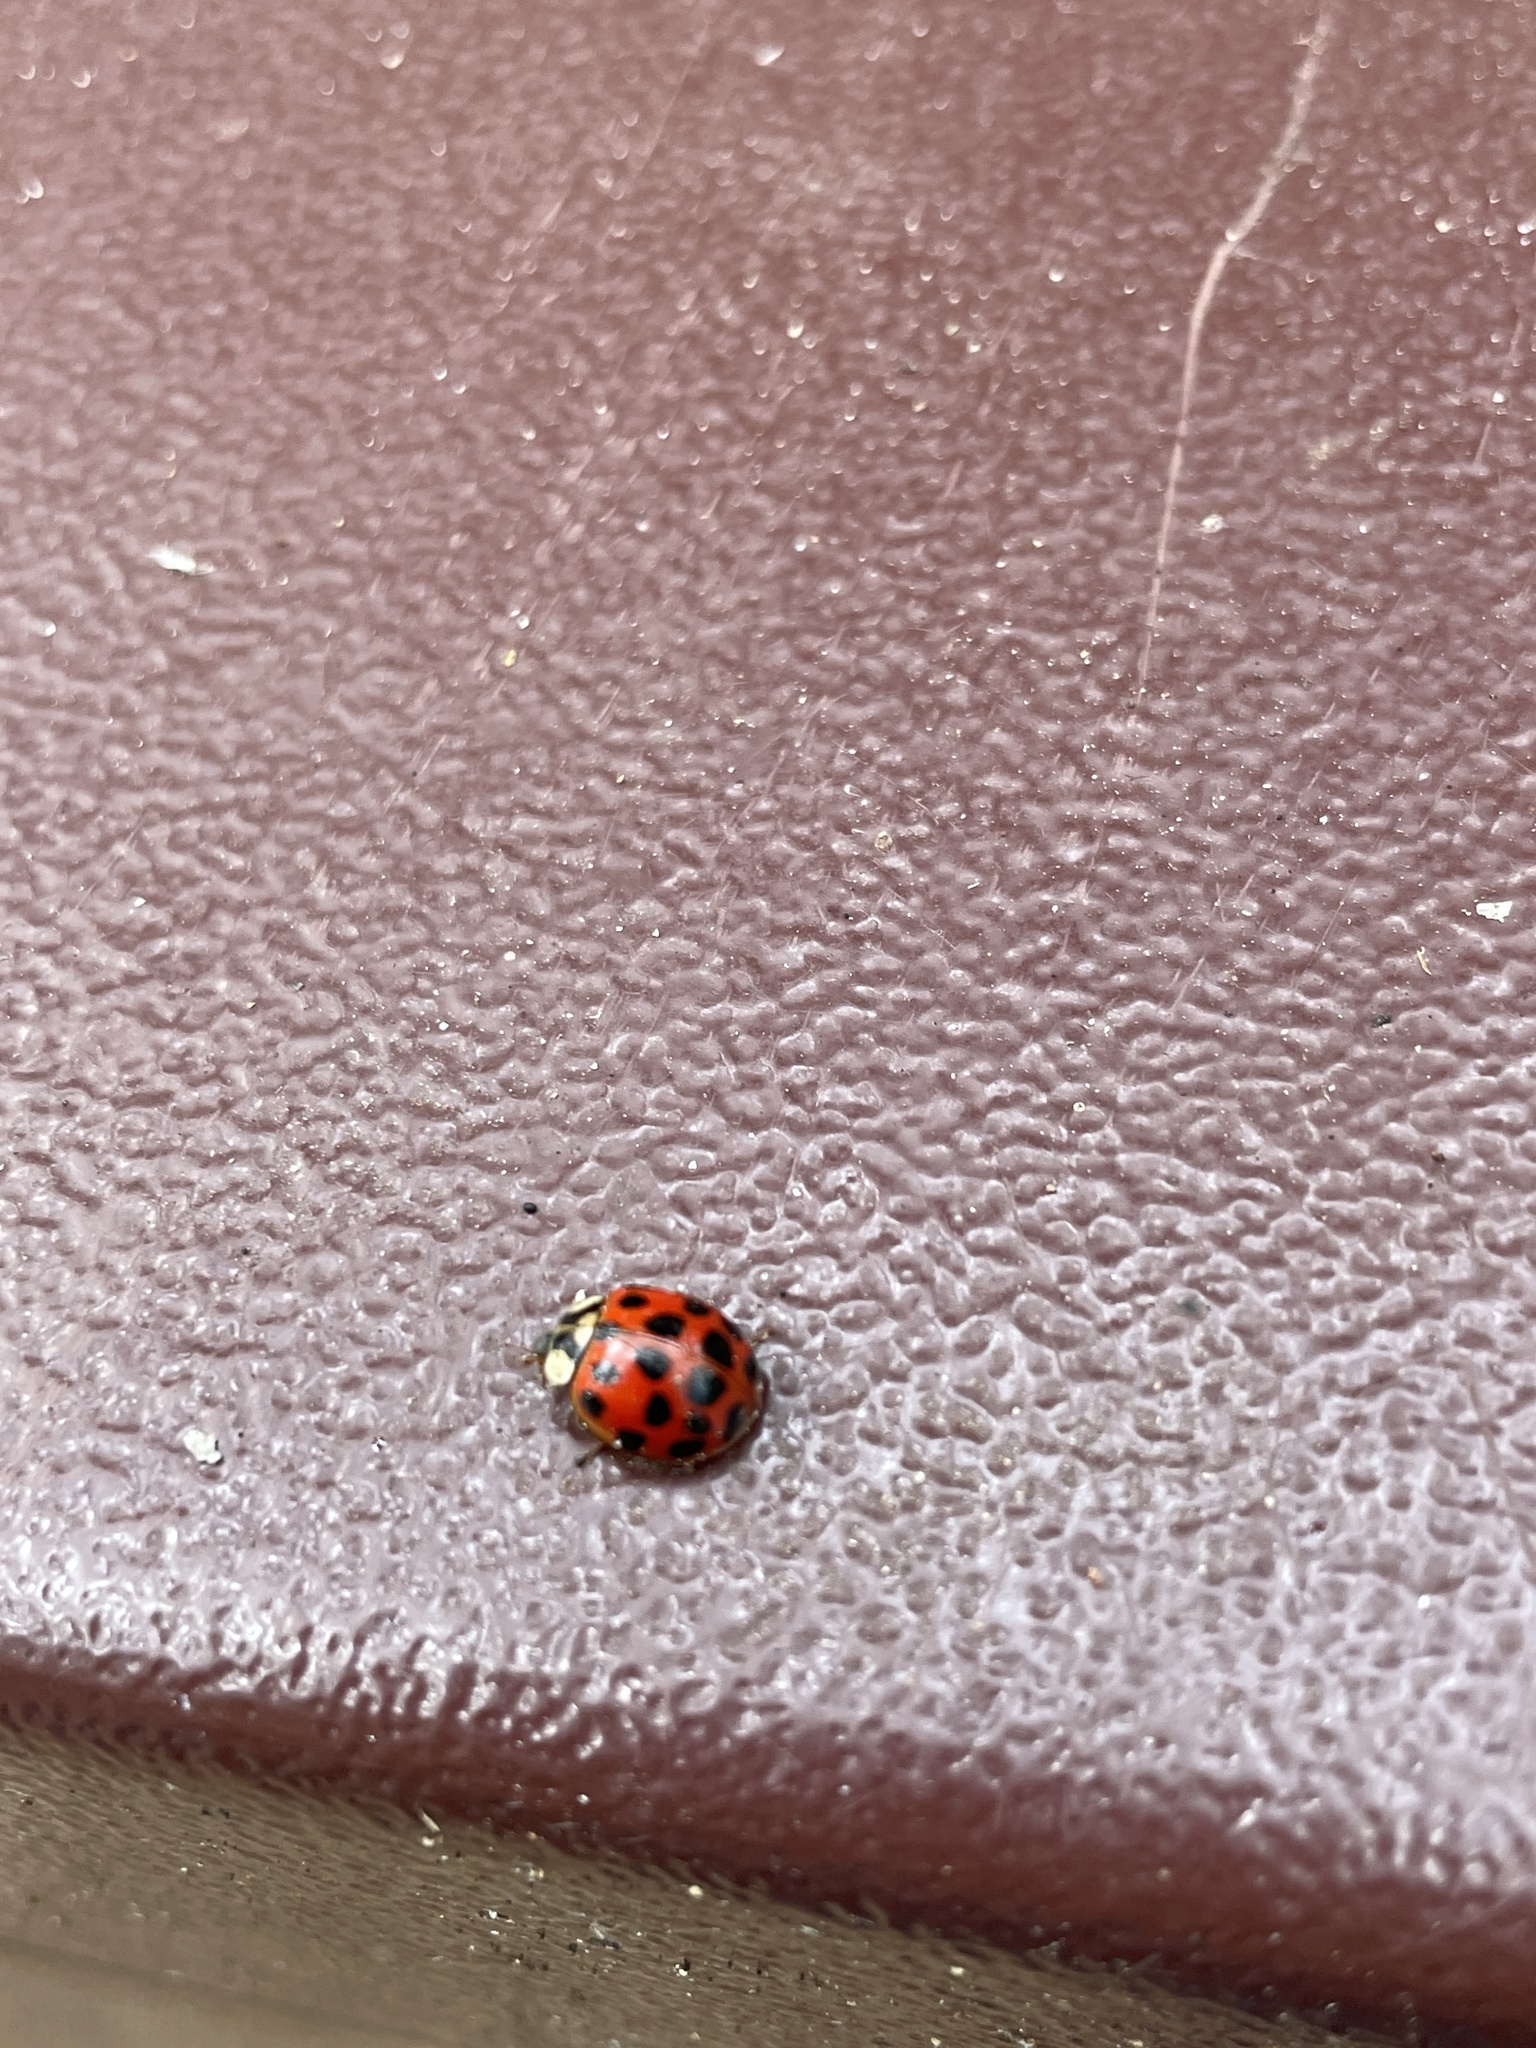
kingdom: Animalia
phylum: Arthropoda
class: Insecta
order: Coleoptera
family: Coccinellidae
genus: Harmonia
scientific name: Harmonia axyridis
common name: Harlequin ladybird
